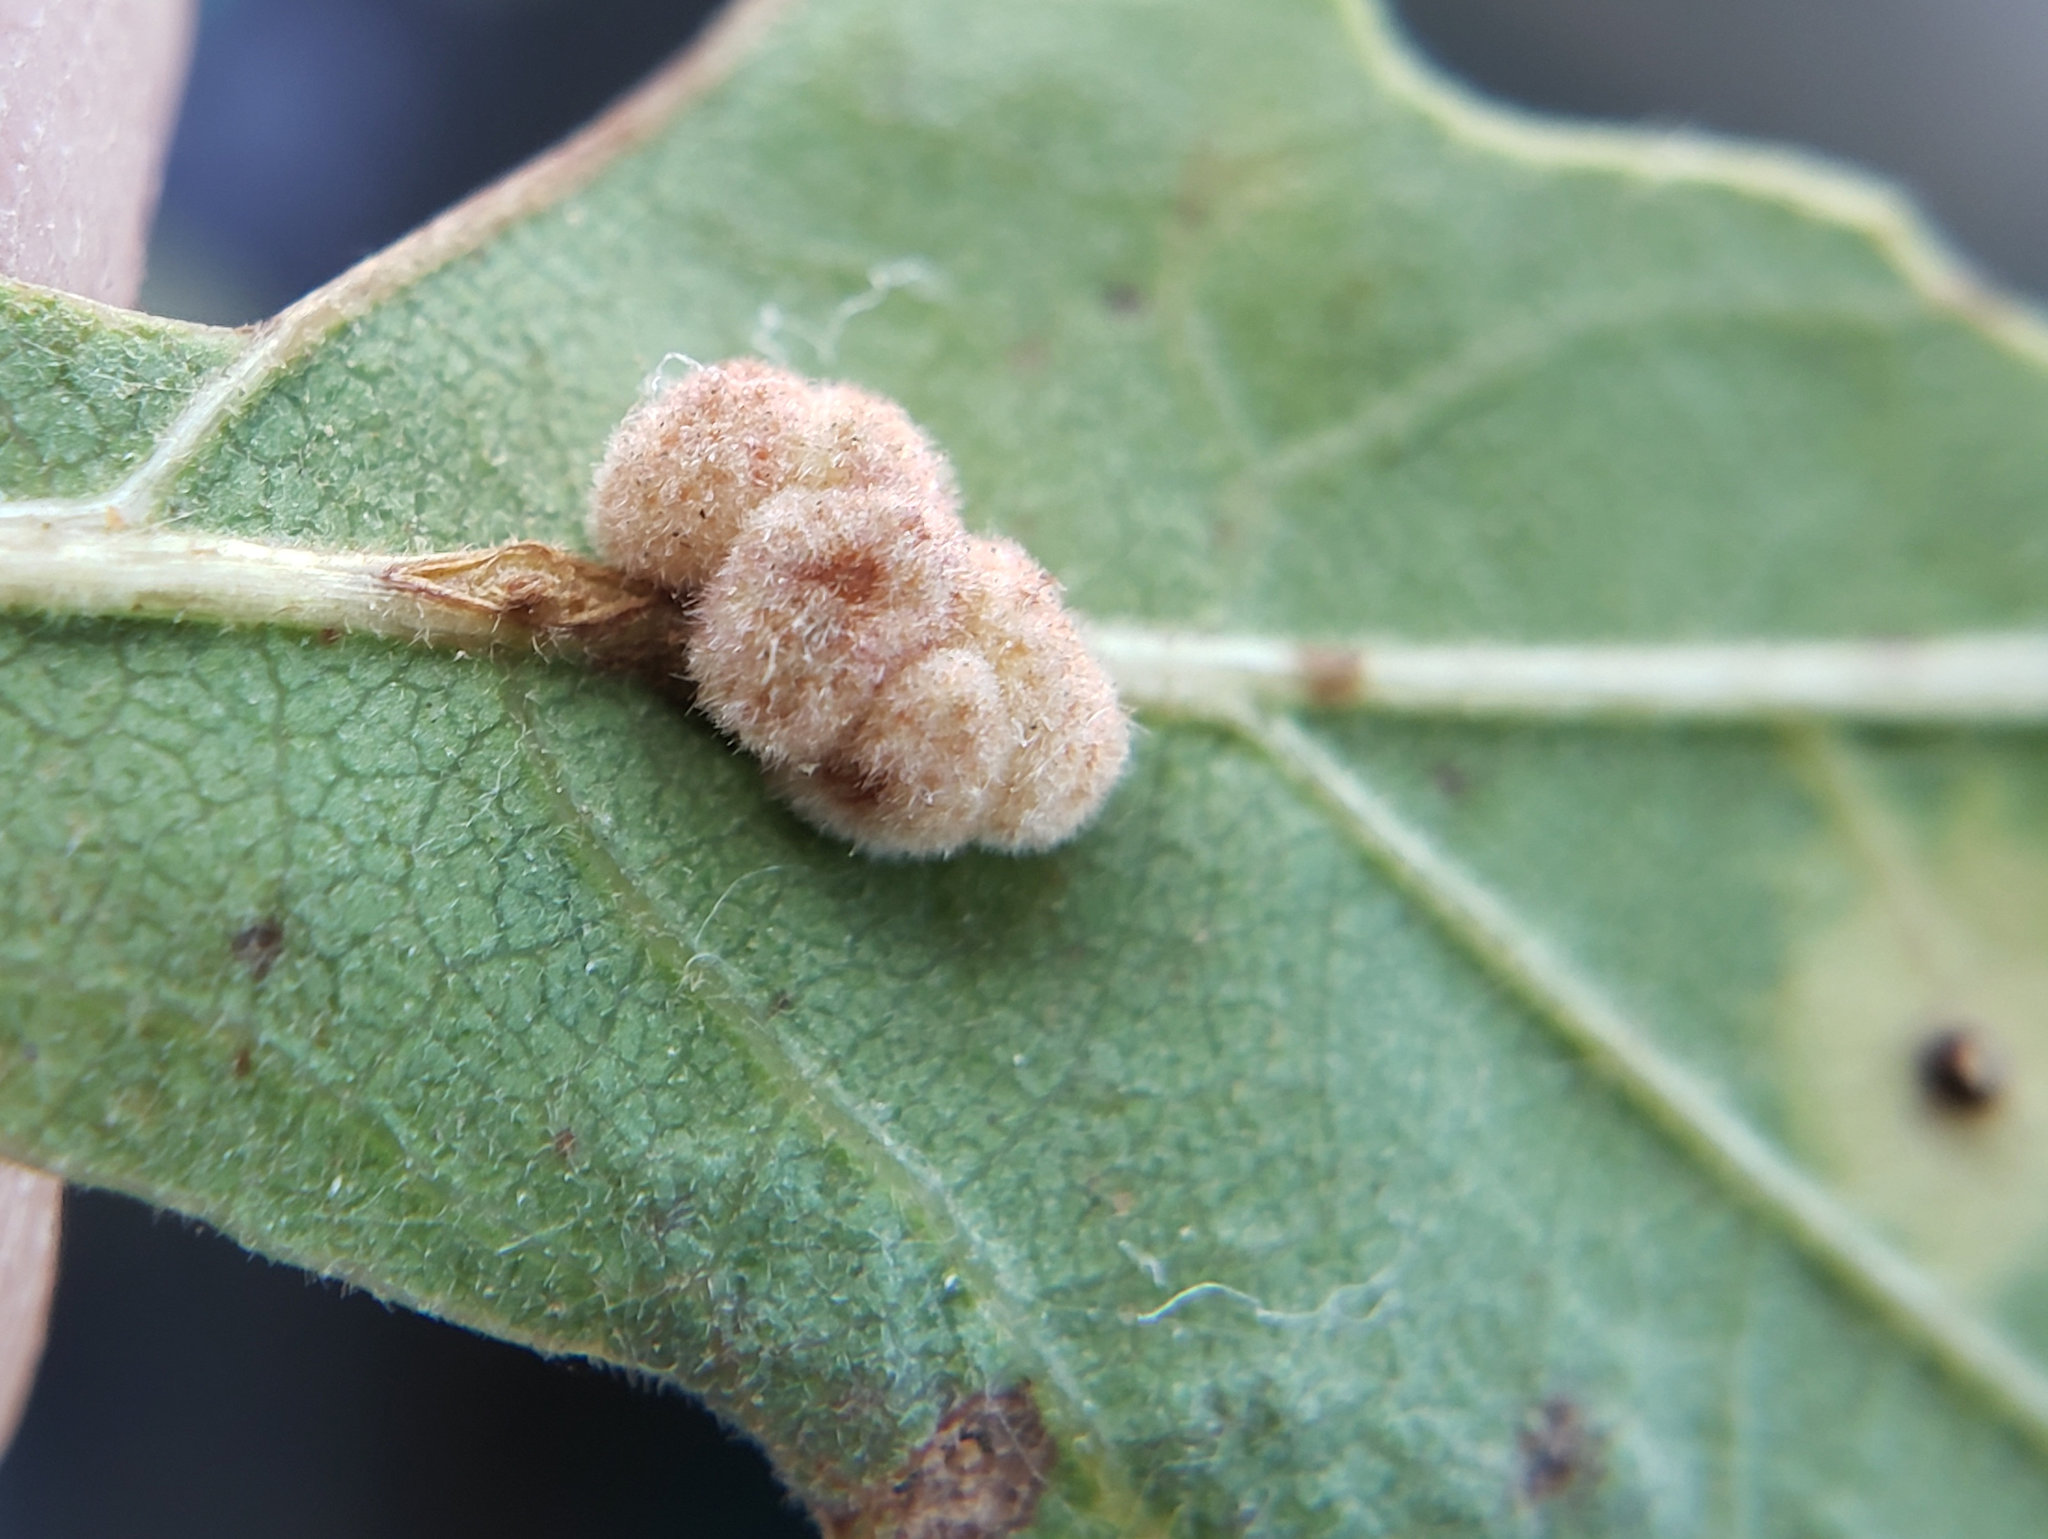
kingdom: Animalia
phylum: Arthropoda
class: Insecta
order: Hymenoptera
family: Cynipidae
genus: Andricus
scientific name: Andricus
